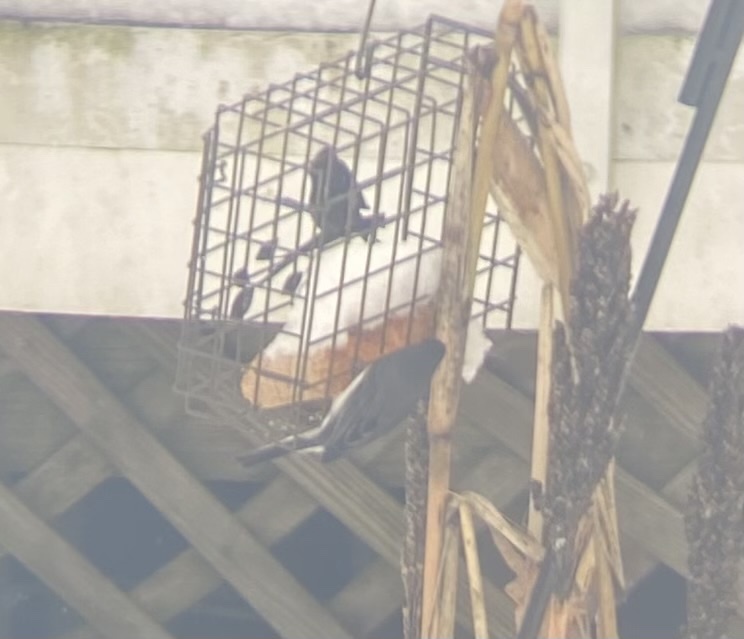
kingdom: Animalia
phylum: Chordata
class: Aves
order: Passeriformes
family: Passerellidae
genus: Junco
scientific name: Junco hyemalis
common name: Dark-eyed junco
